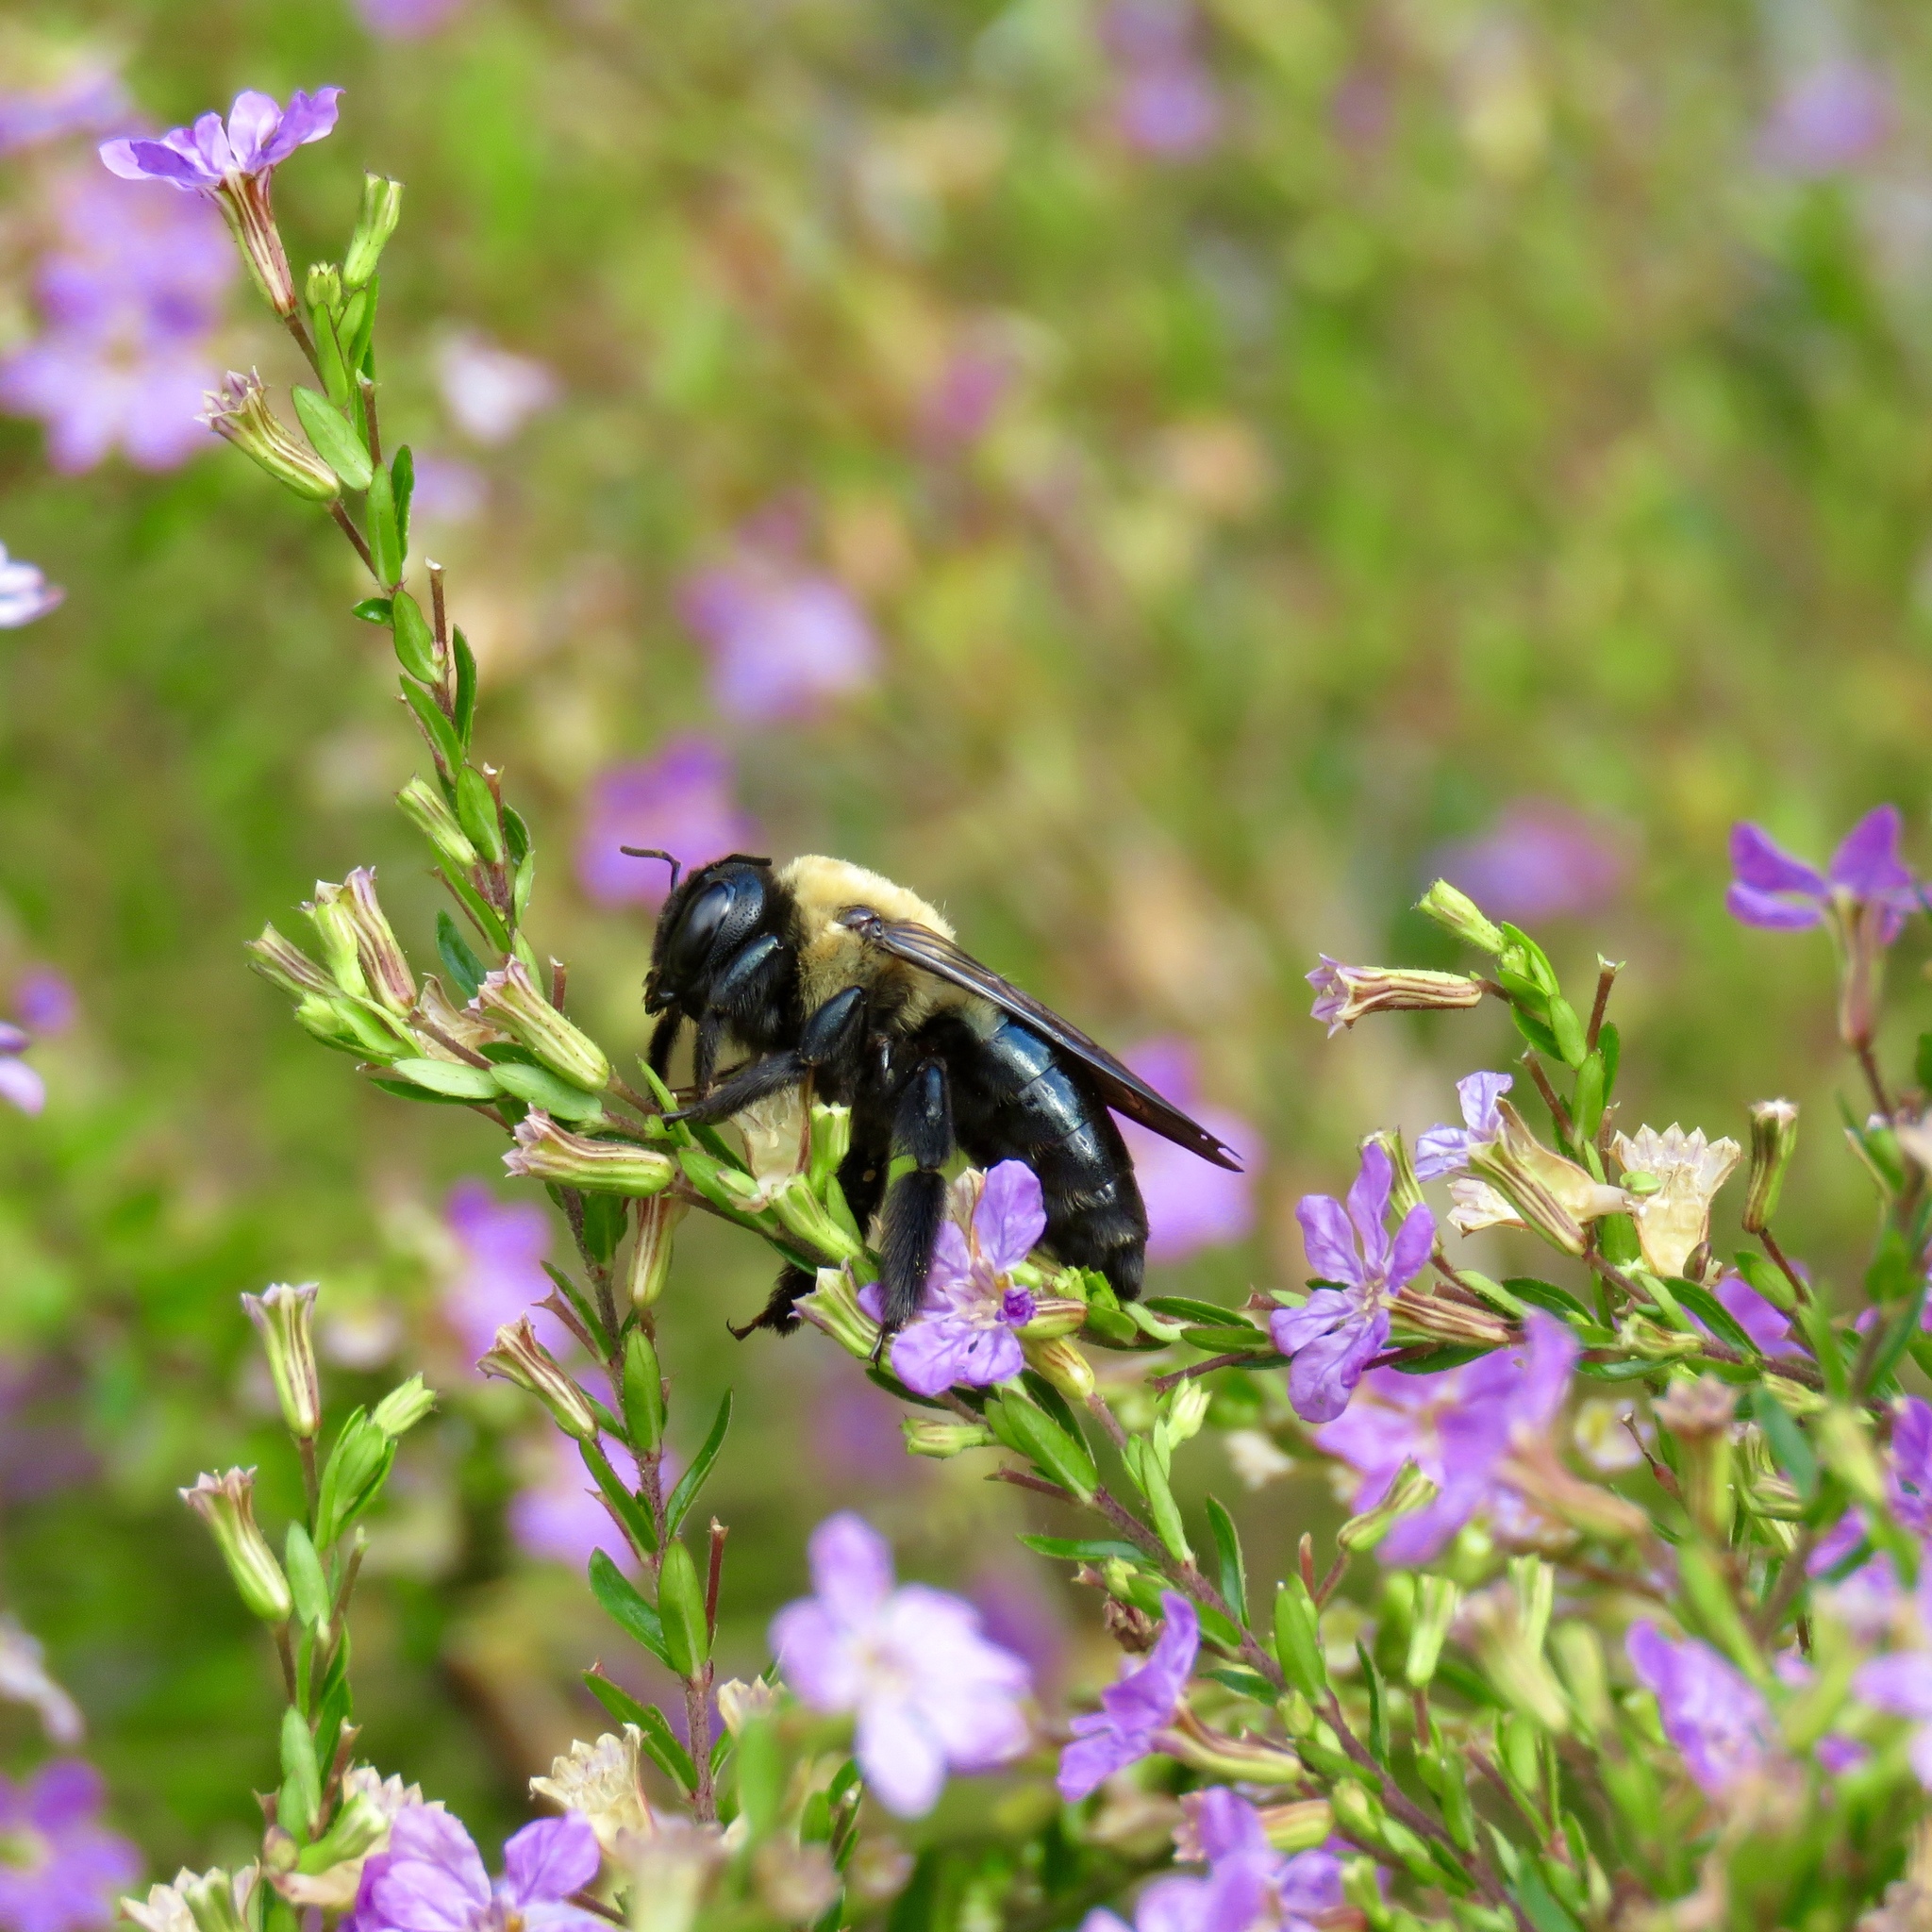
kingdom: Animalia
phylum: Arthropoda
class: Insecta
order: Hymenoptera
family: Apidae
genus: Xylocopa
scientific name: Xylocopa virginica
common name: Carpenter bee
